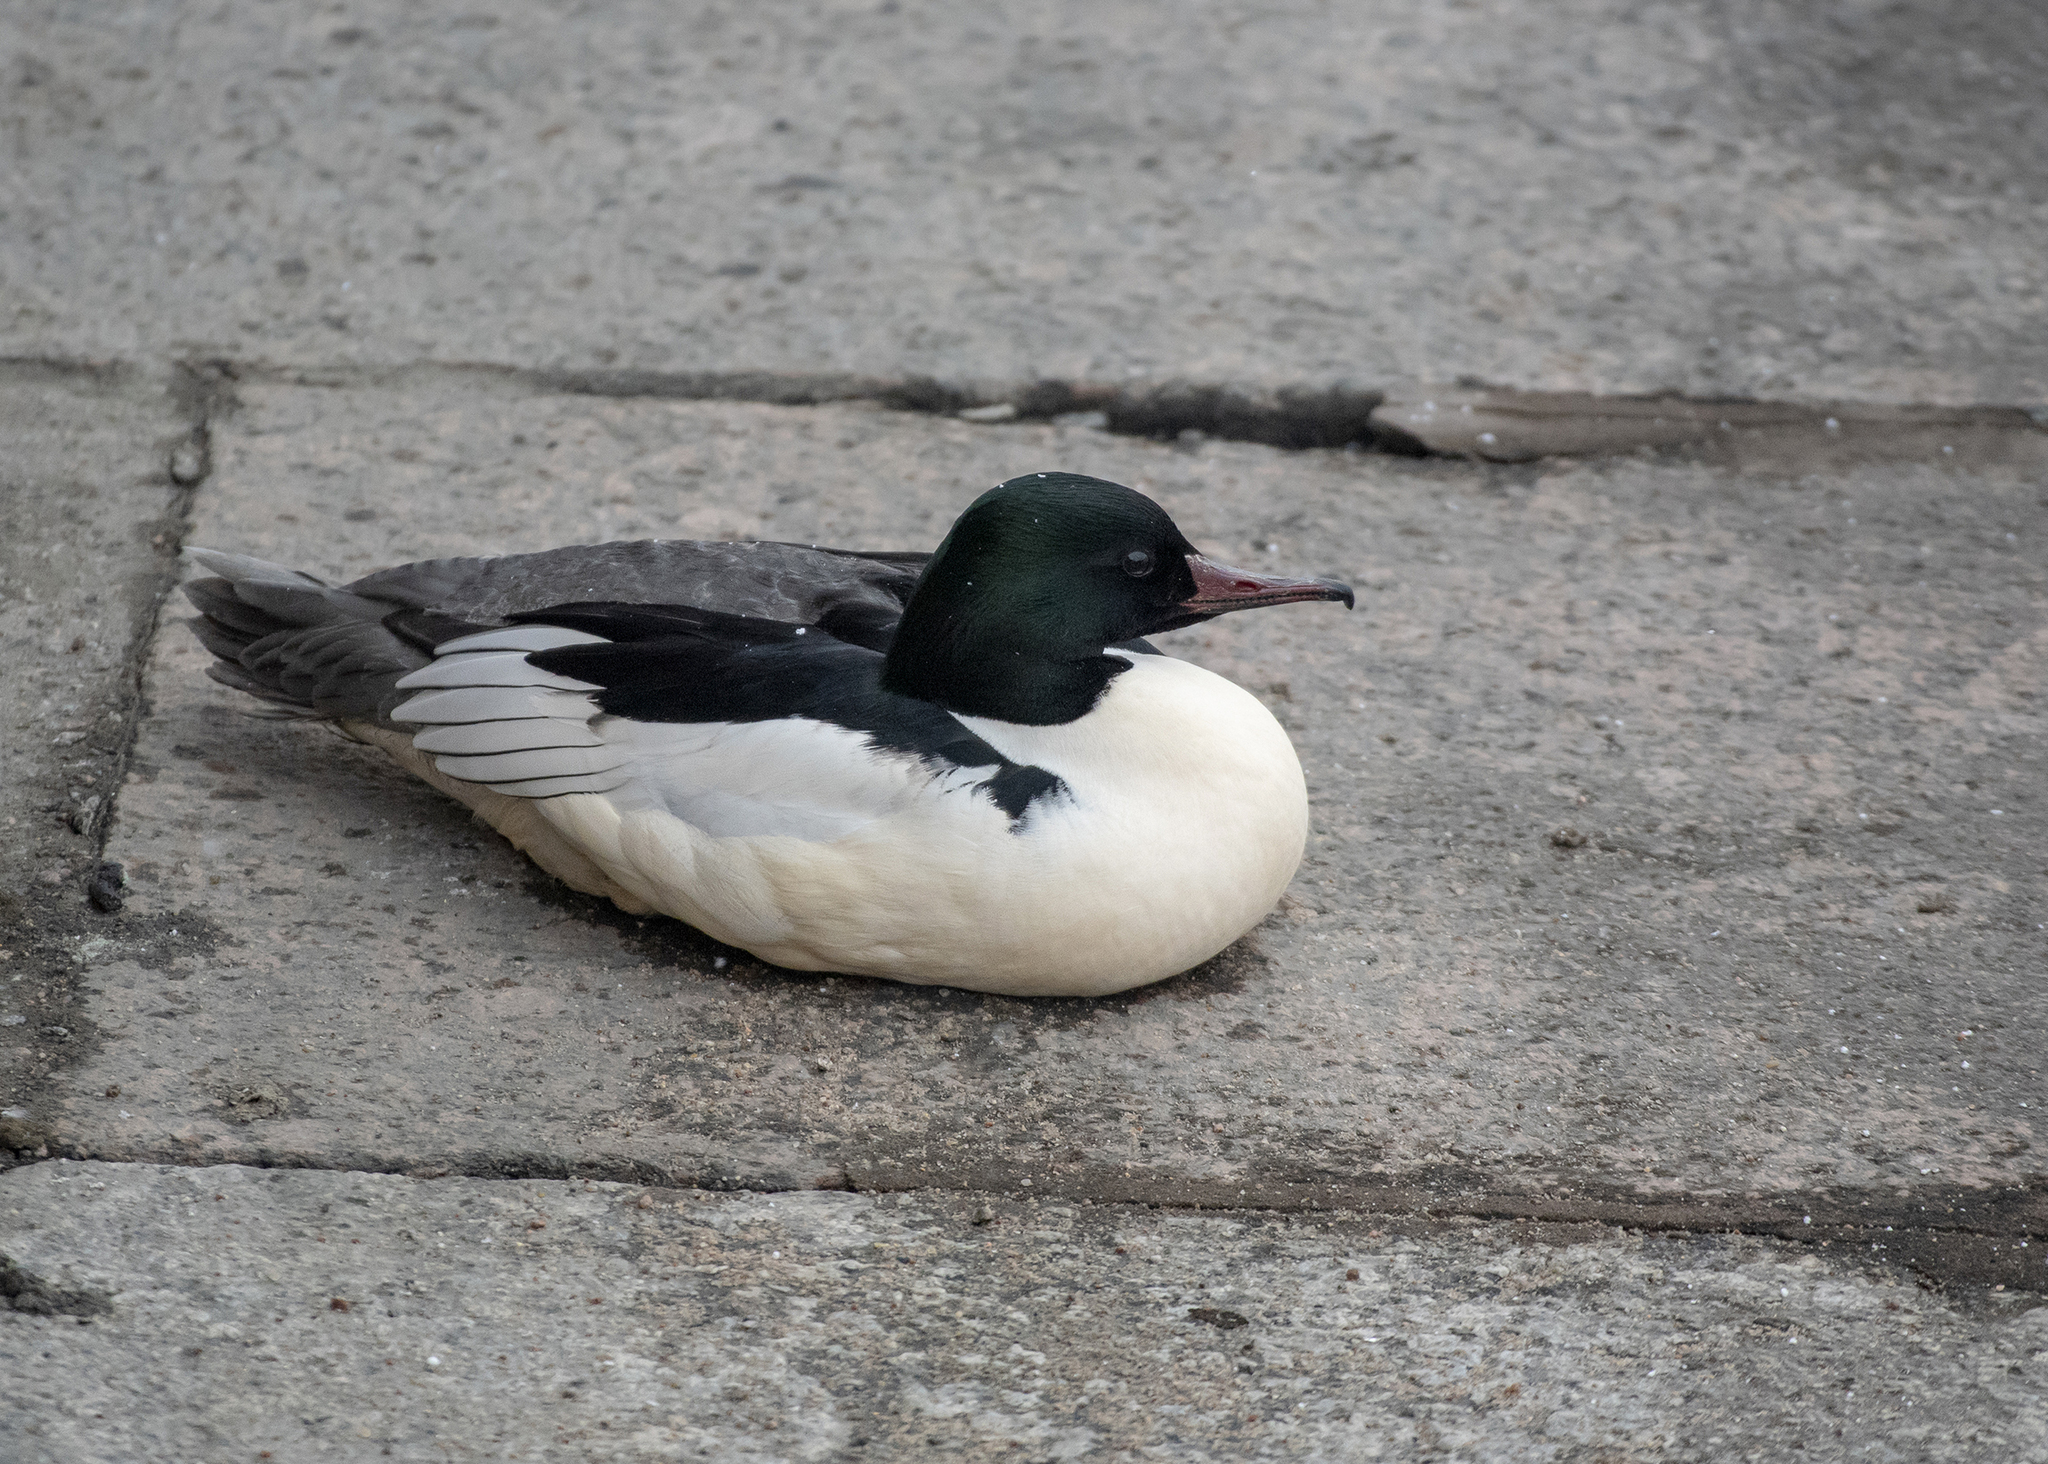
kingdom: Animalia
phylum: Chordata
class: Aves
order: Anseriformes
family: Anatidae
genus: Mergus
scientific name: Mergus merganser
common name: Common merganser
